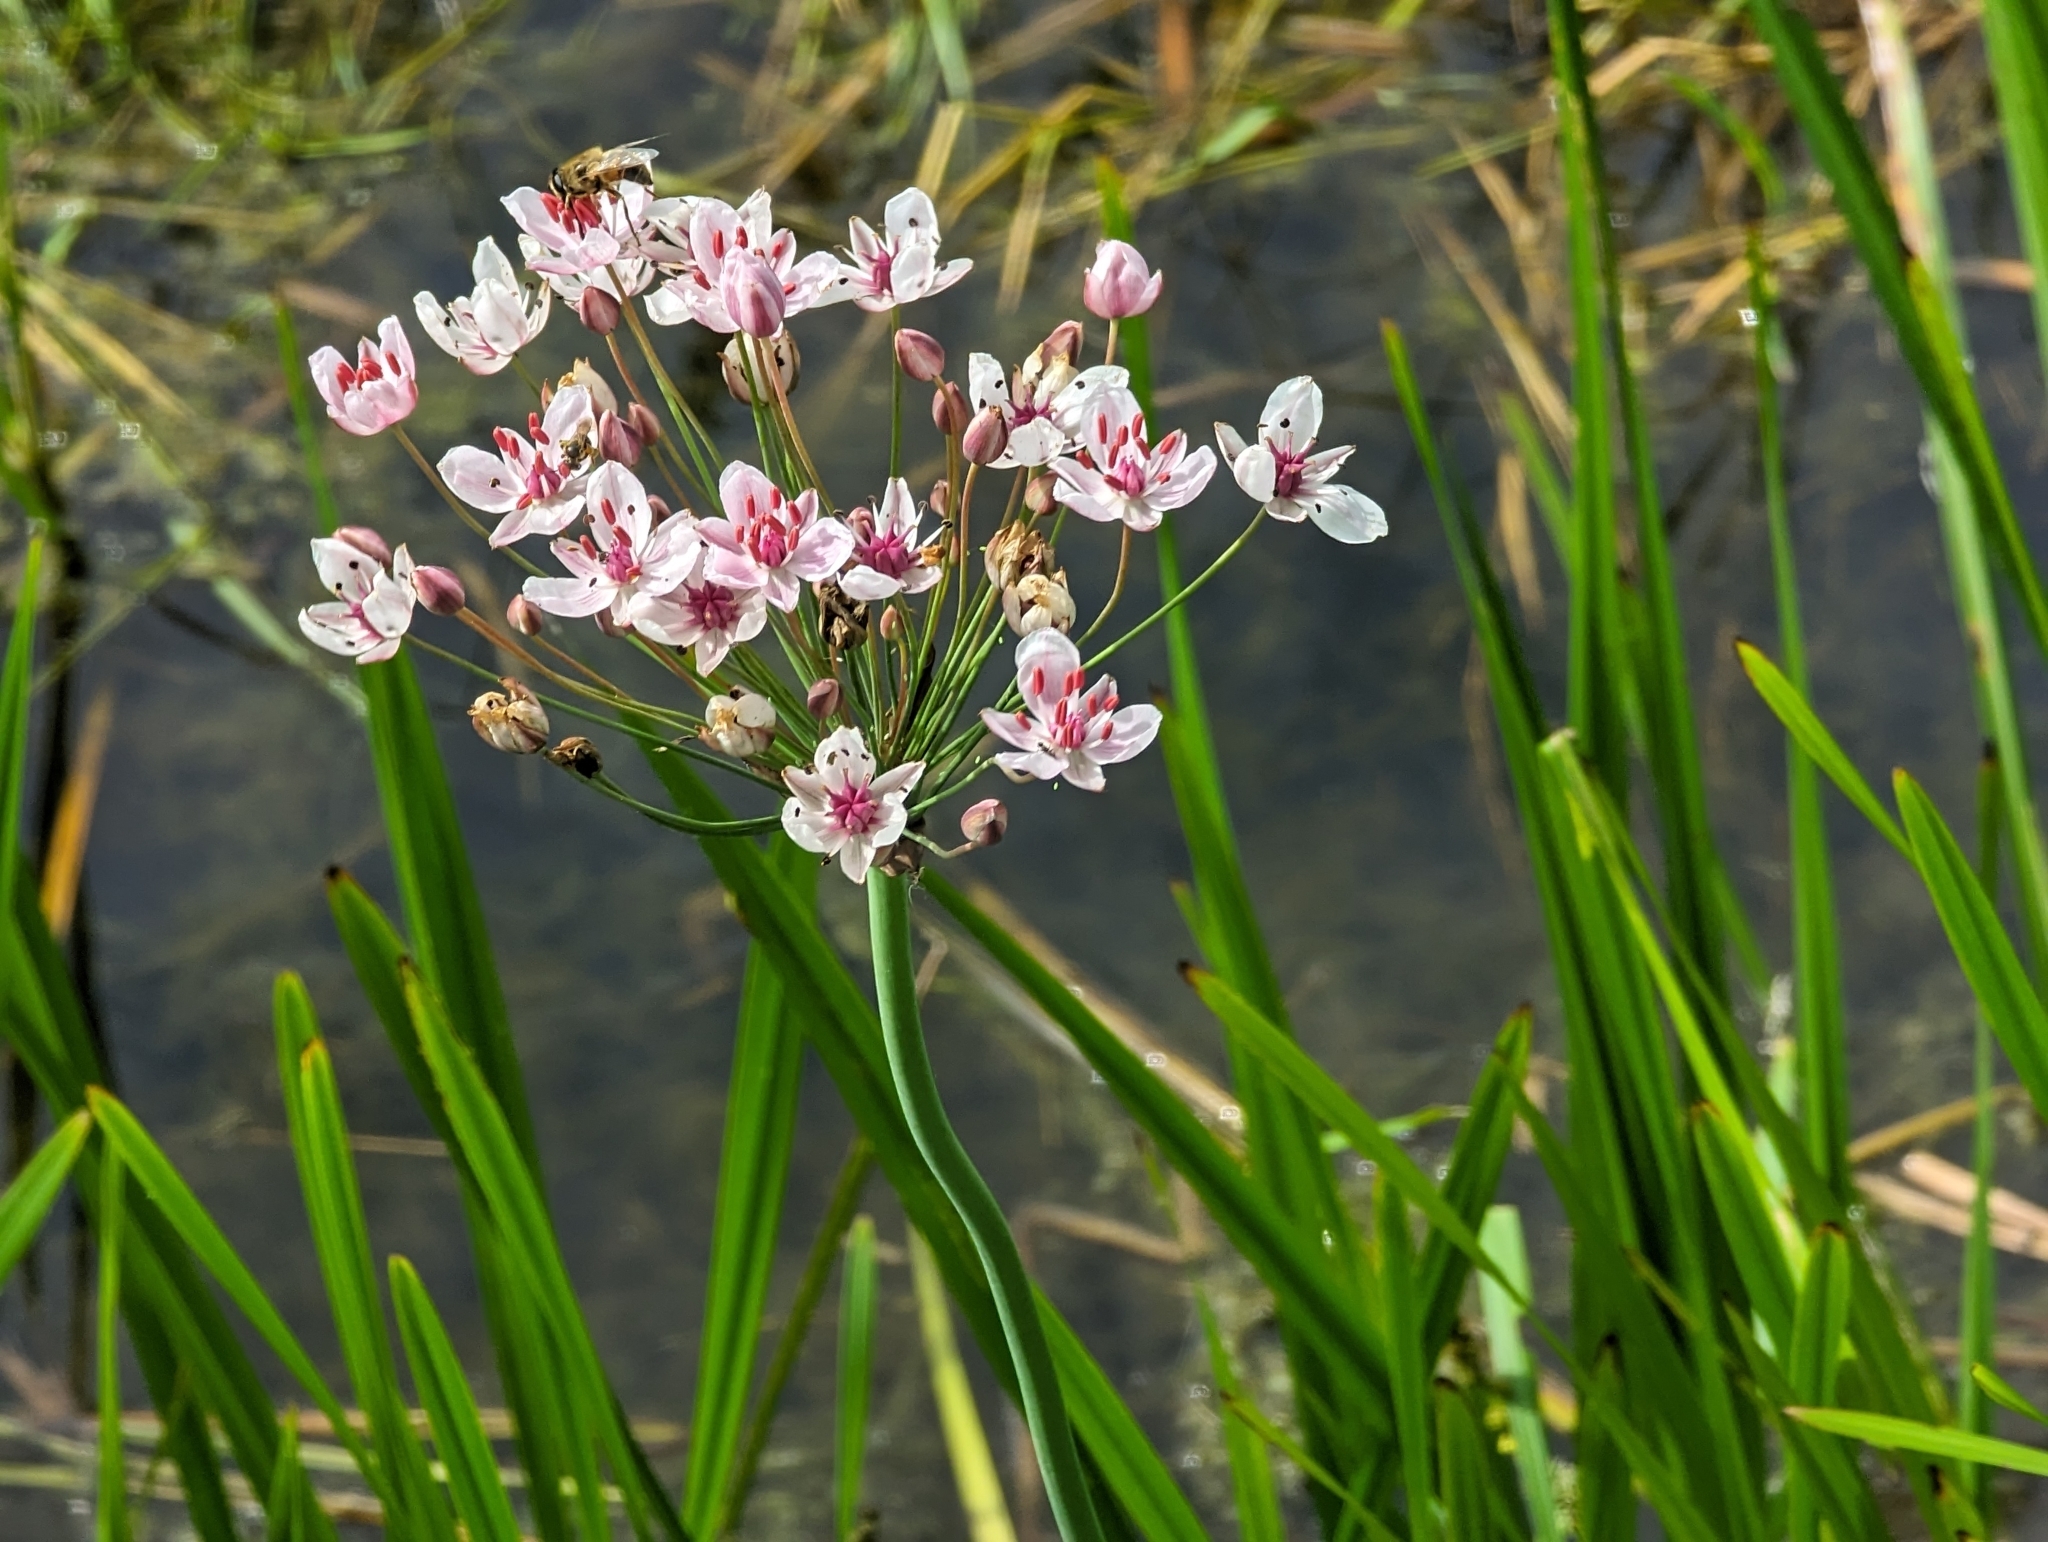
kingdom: Plantae
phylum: Tracheophyta
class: Liliopsida
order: Alismatales
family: Butomaceae
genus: Butomus
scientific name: Butomus umbellatus
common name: Flowering-rush
